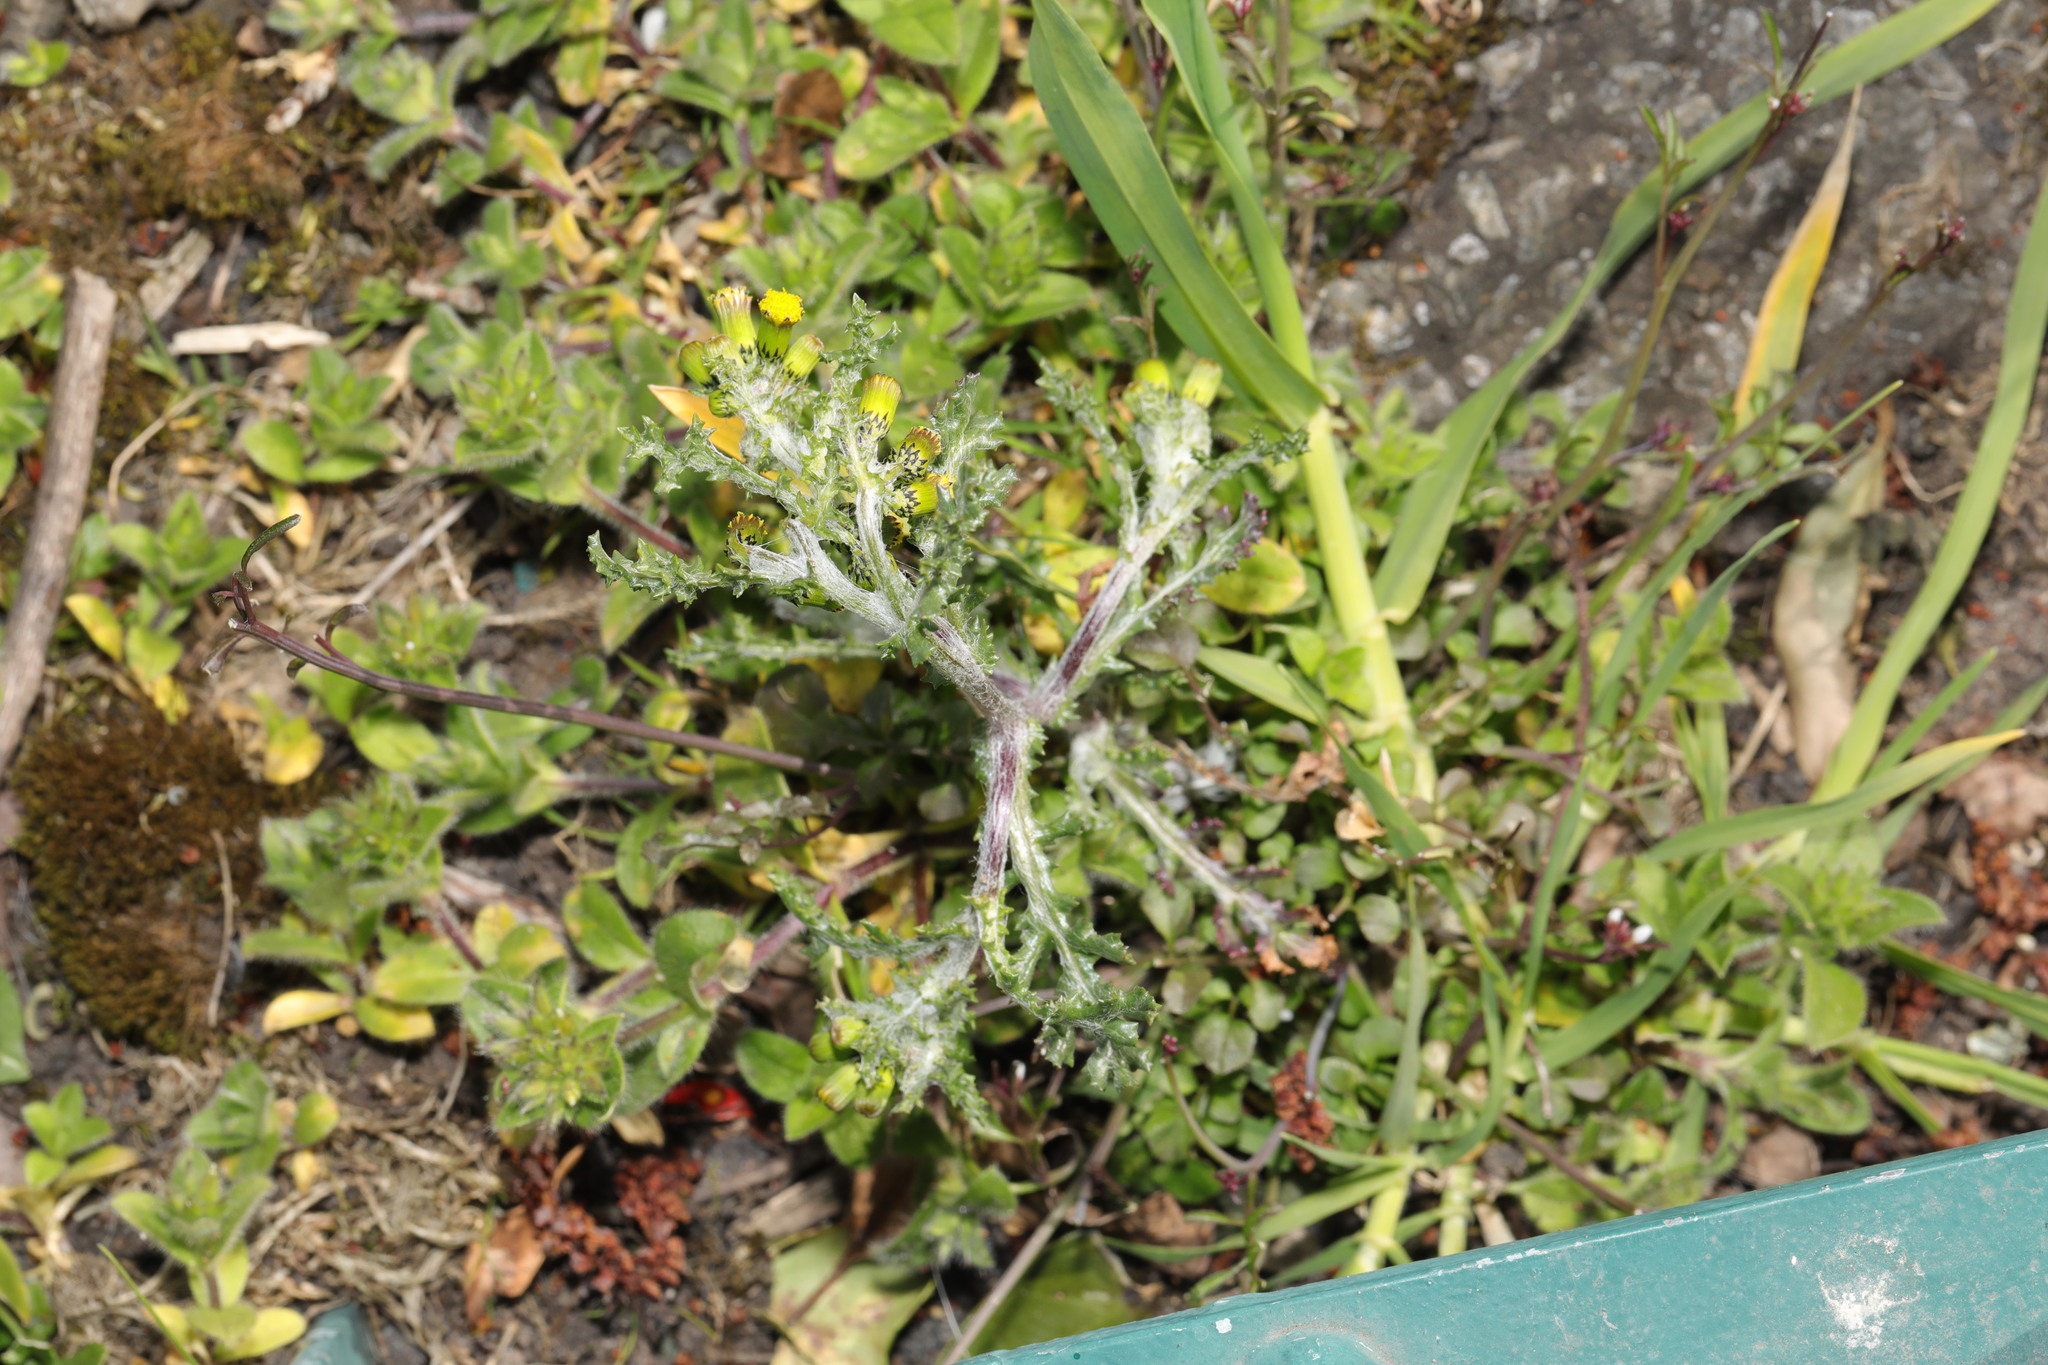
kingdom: Plantae
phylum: Tracheophyta
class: Magnoliopsida
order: Asterales
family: Asteraceae
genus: Senecio
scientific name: Senecio vulgaris
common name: Old-man-in-the-spring
